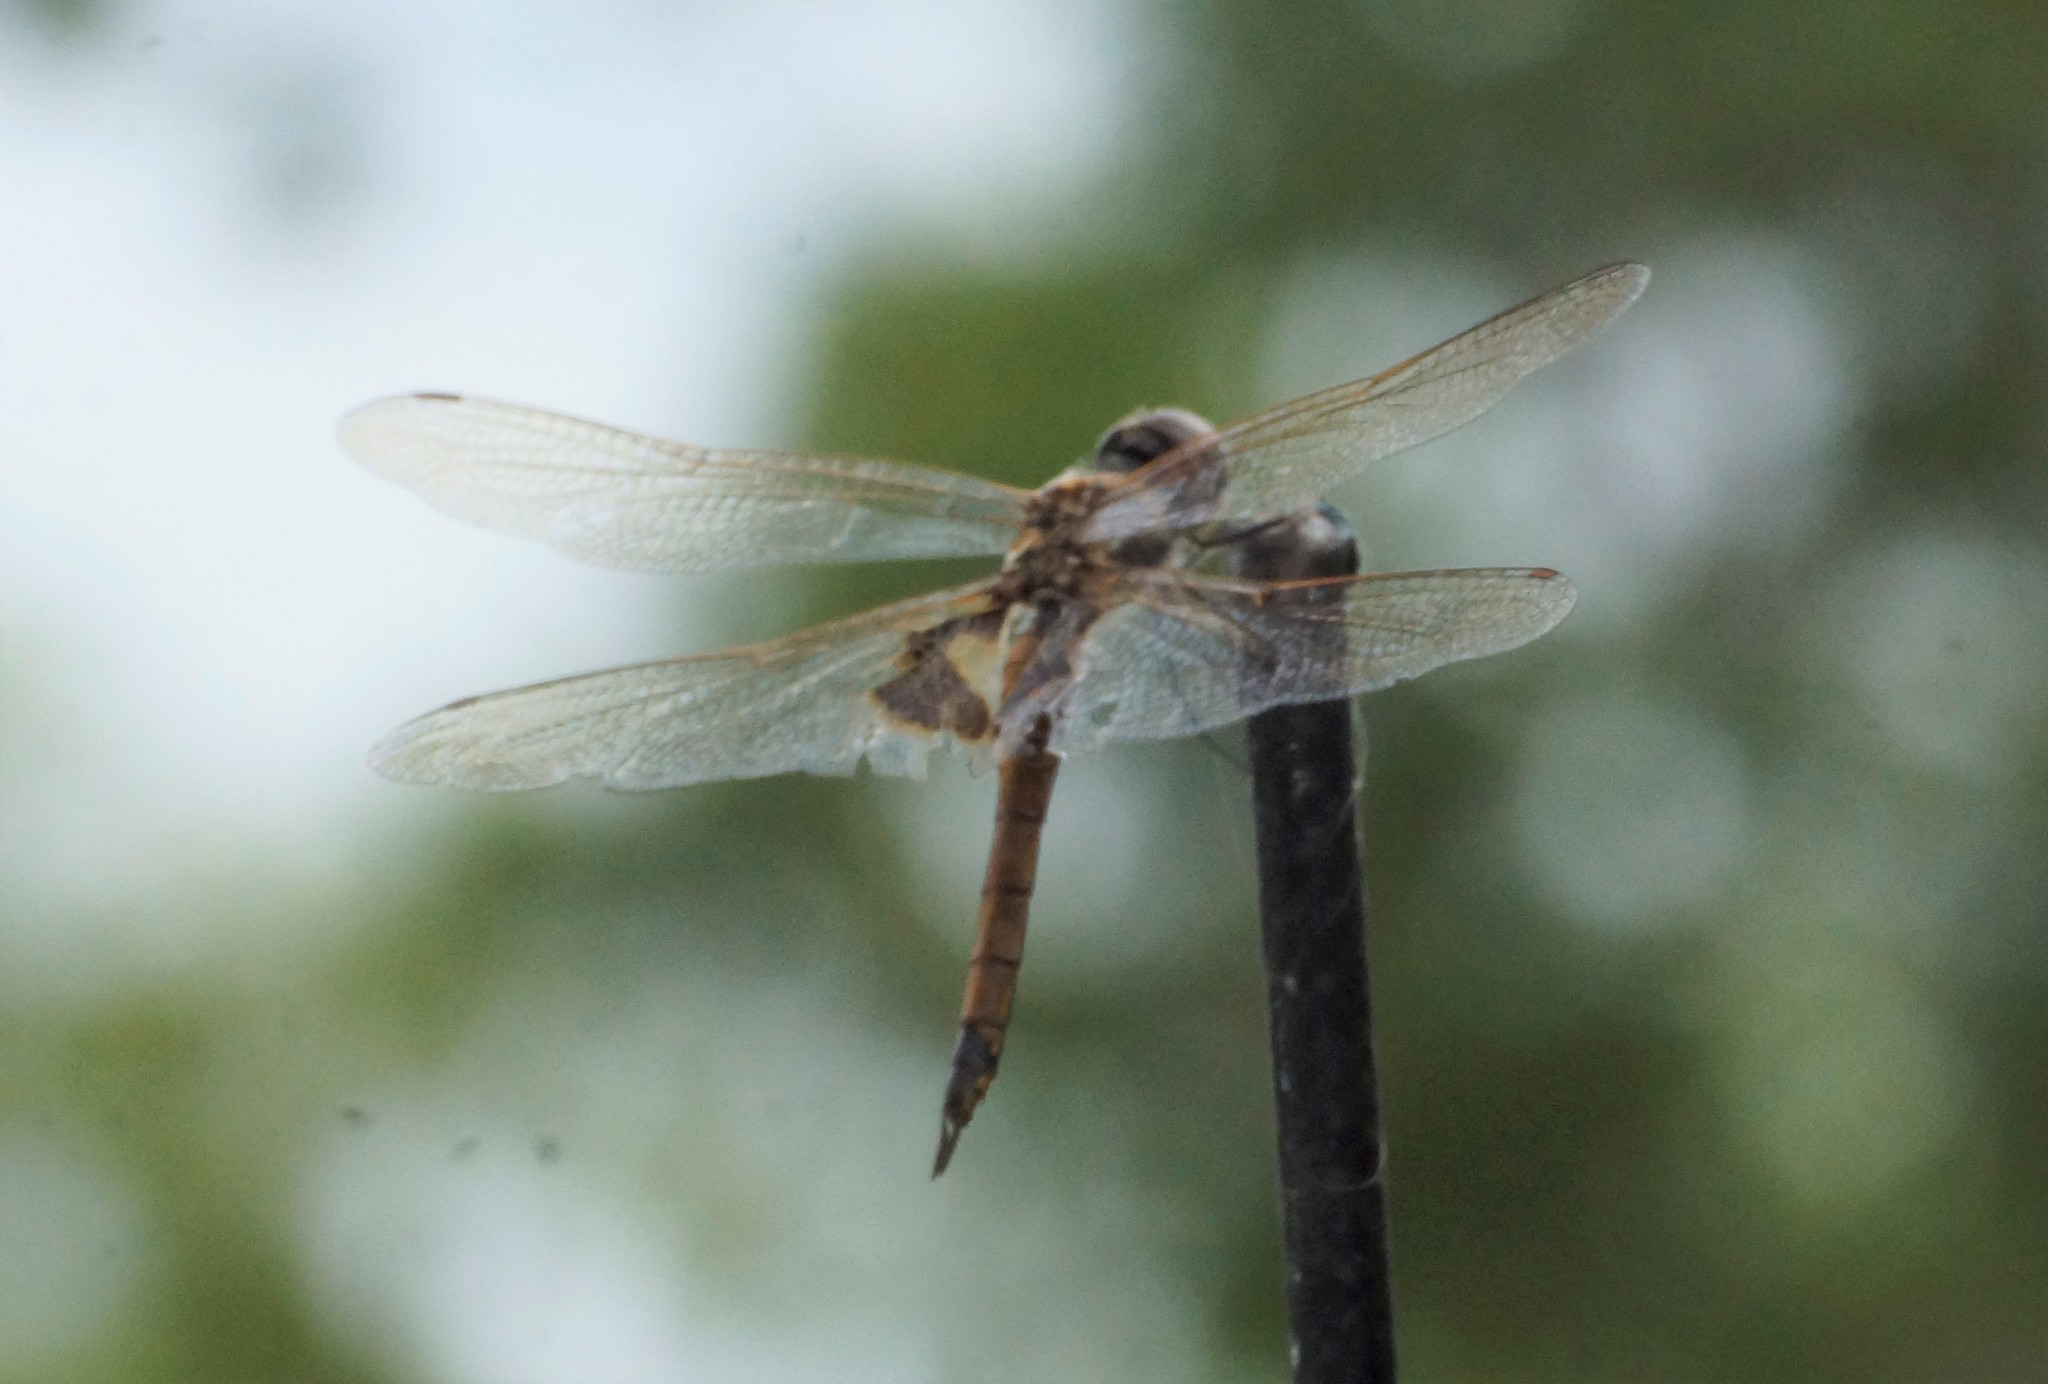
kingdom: Animalia
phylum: Arthropoda
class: Insecta
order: Odonata
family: Libellulidae
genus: Tramea
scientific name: Tramea loewii
